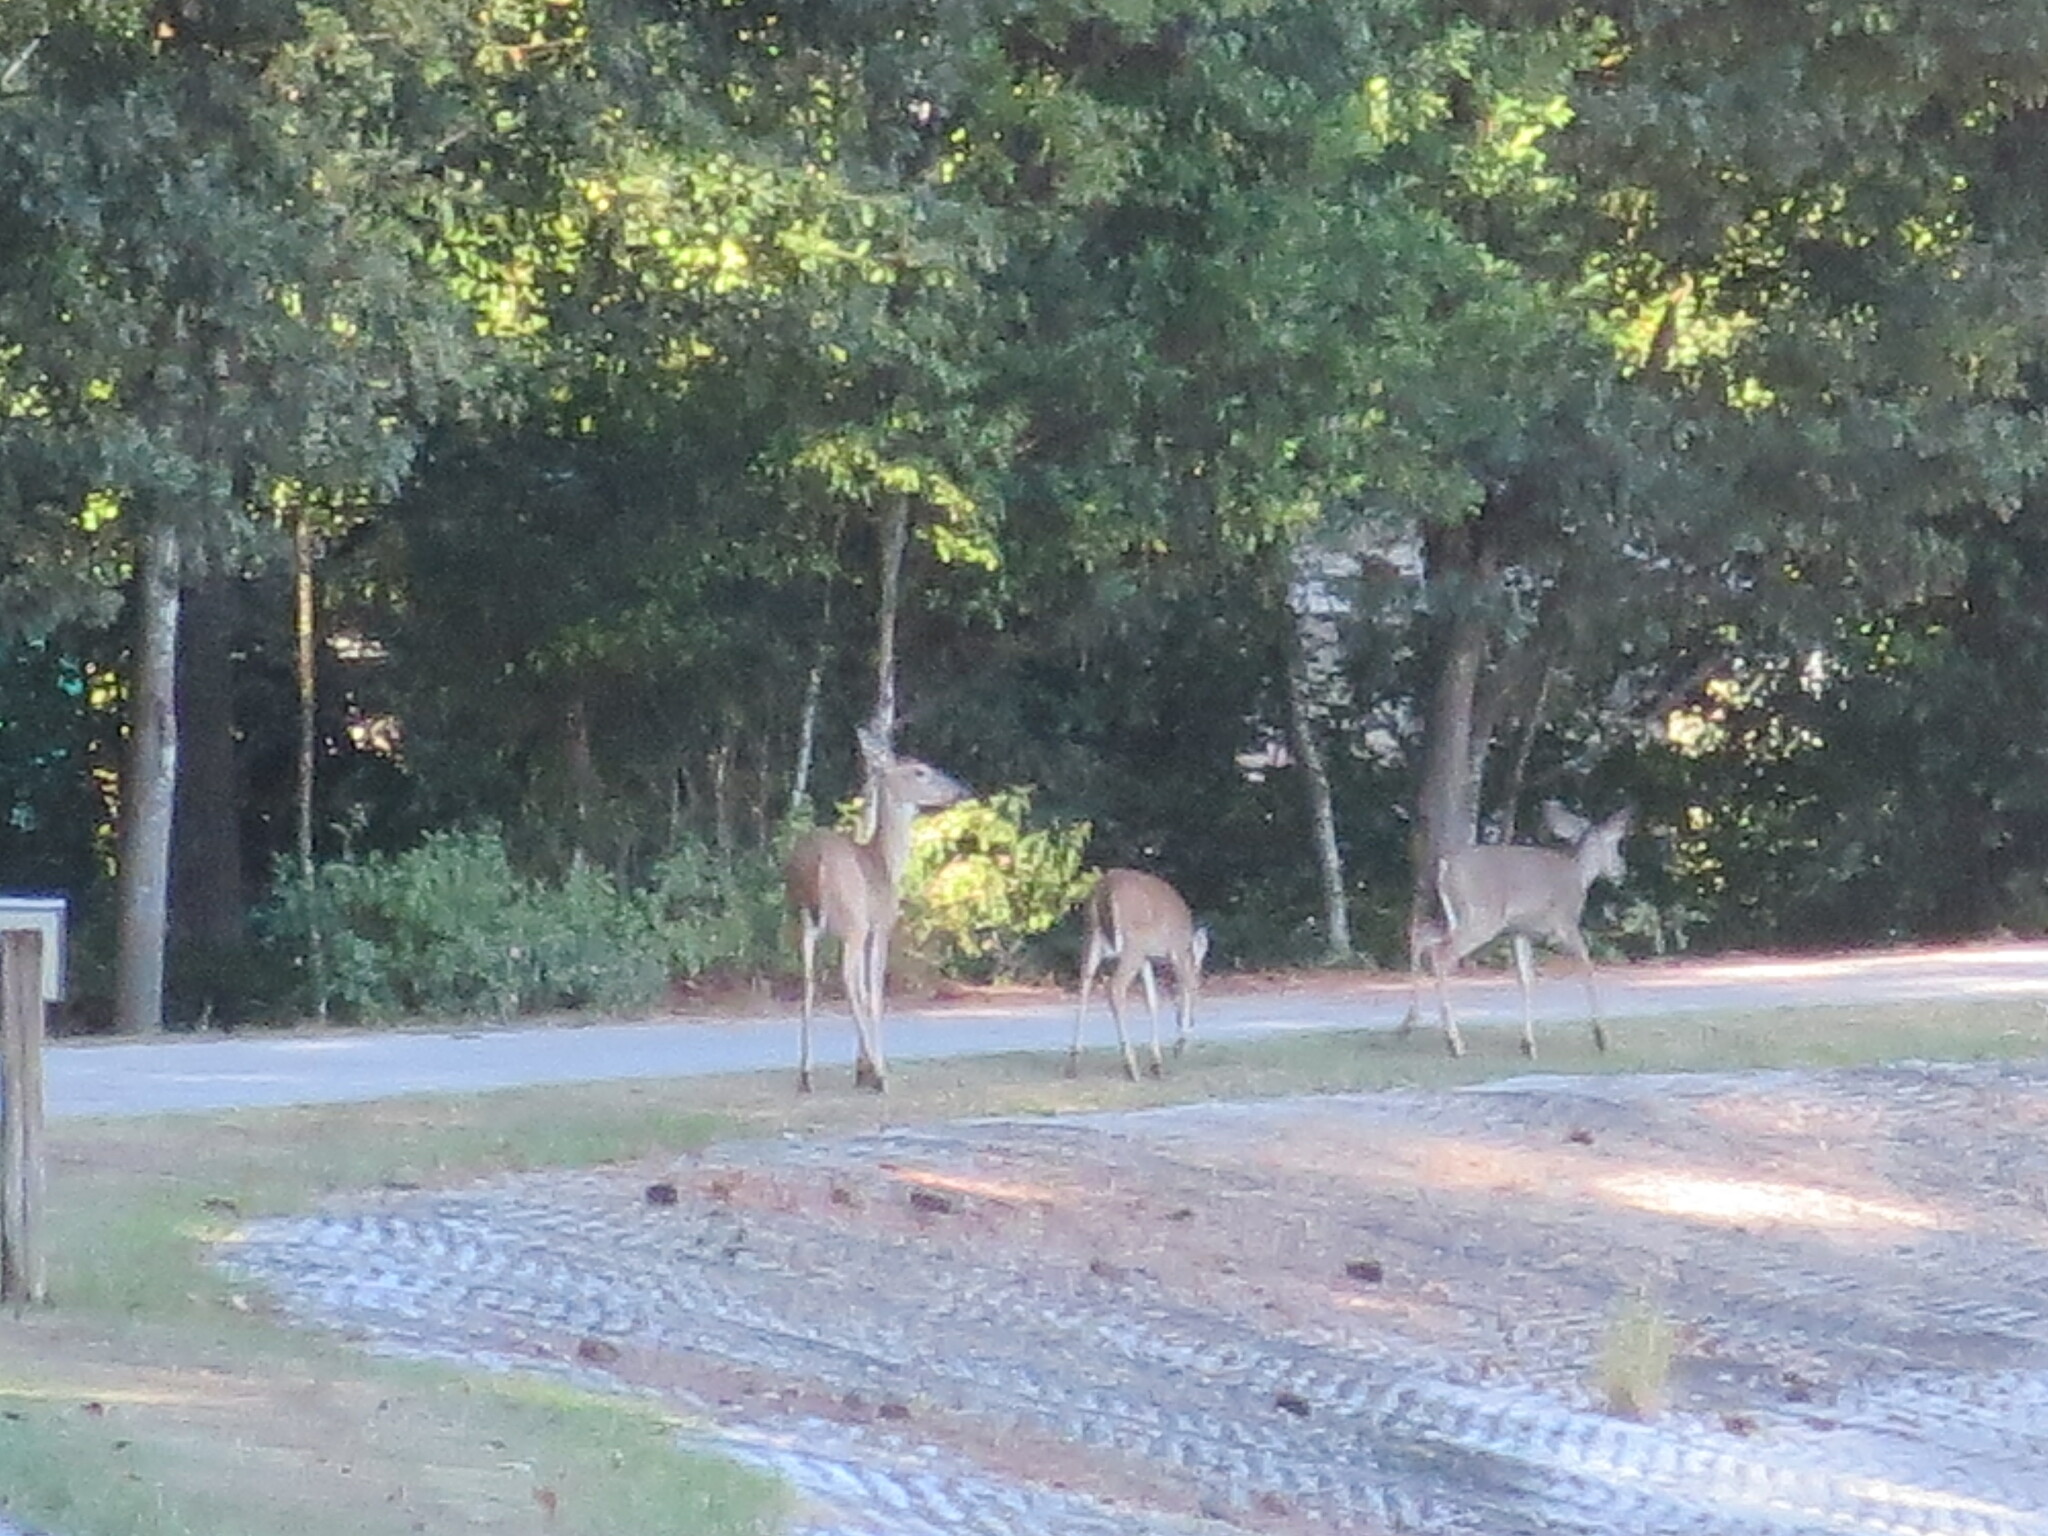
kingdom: Animalia
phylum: Chordata
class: Mammalia
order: Artiodactyla
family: Cervidae
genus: Odocoileus
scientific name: Odocoileus virginianus
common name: White-tailed deer
